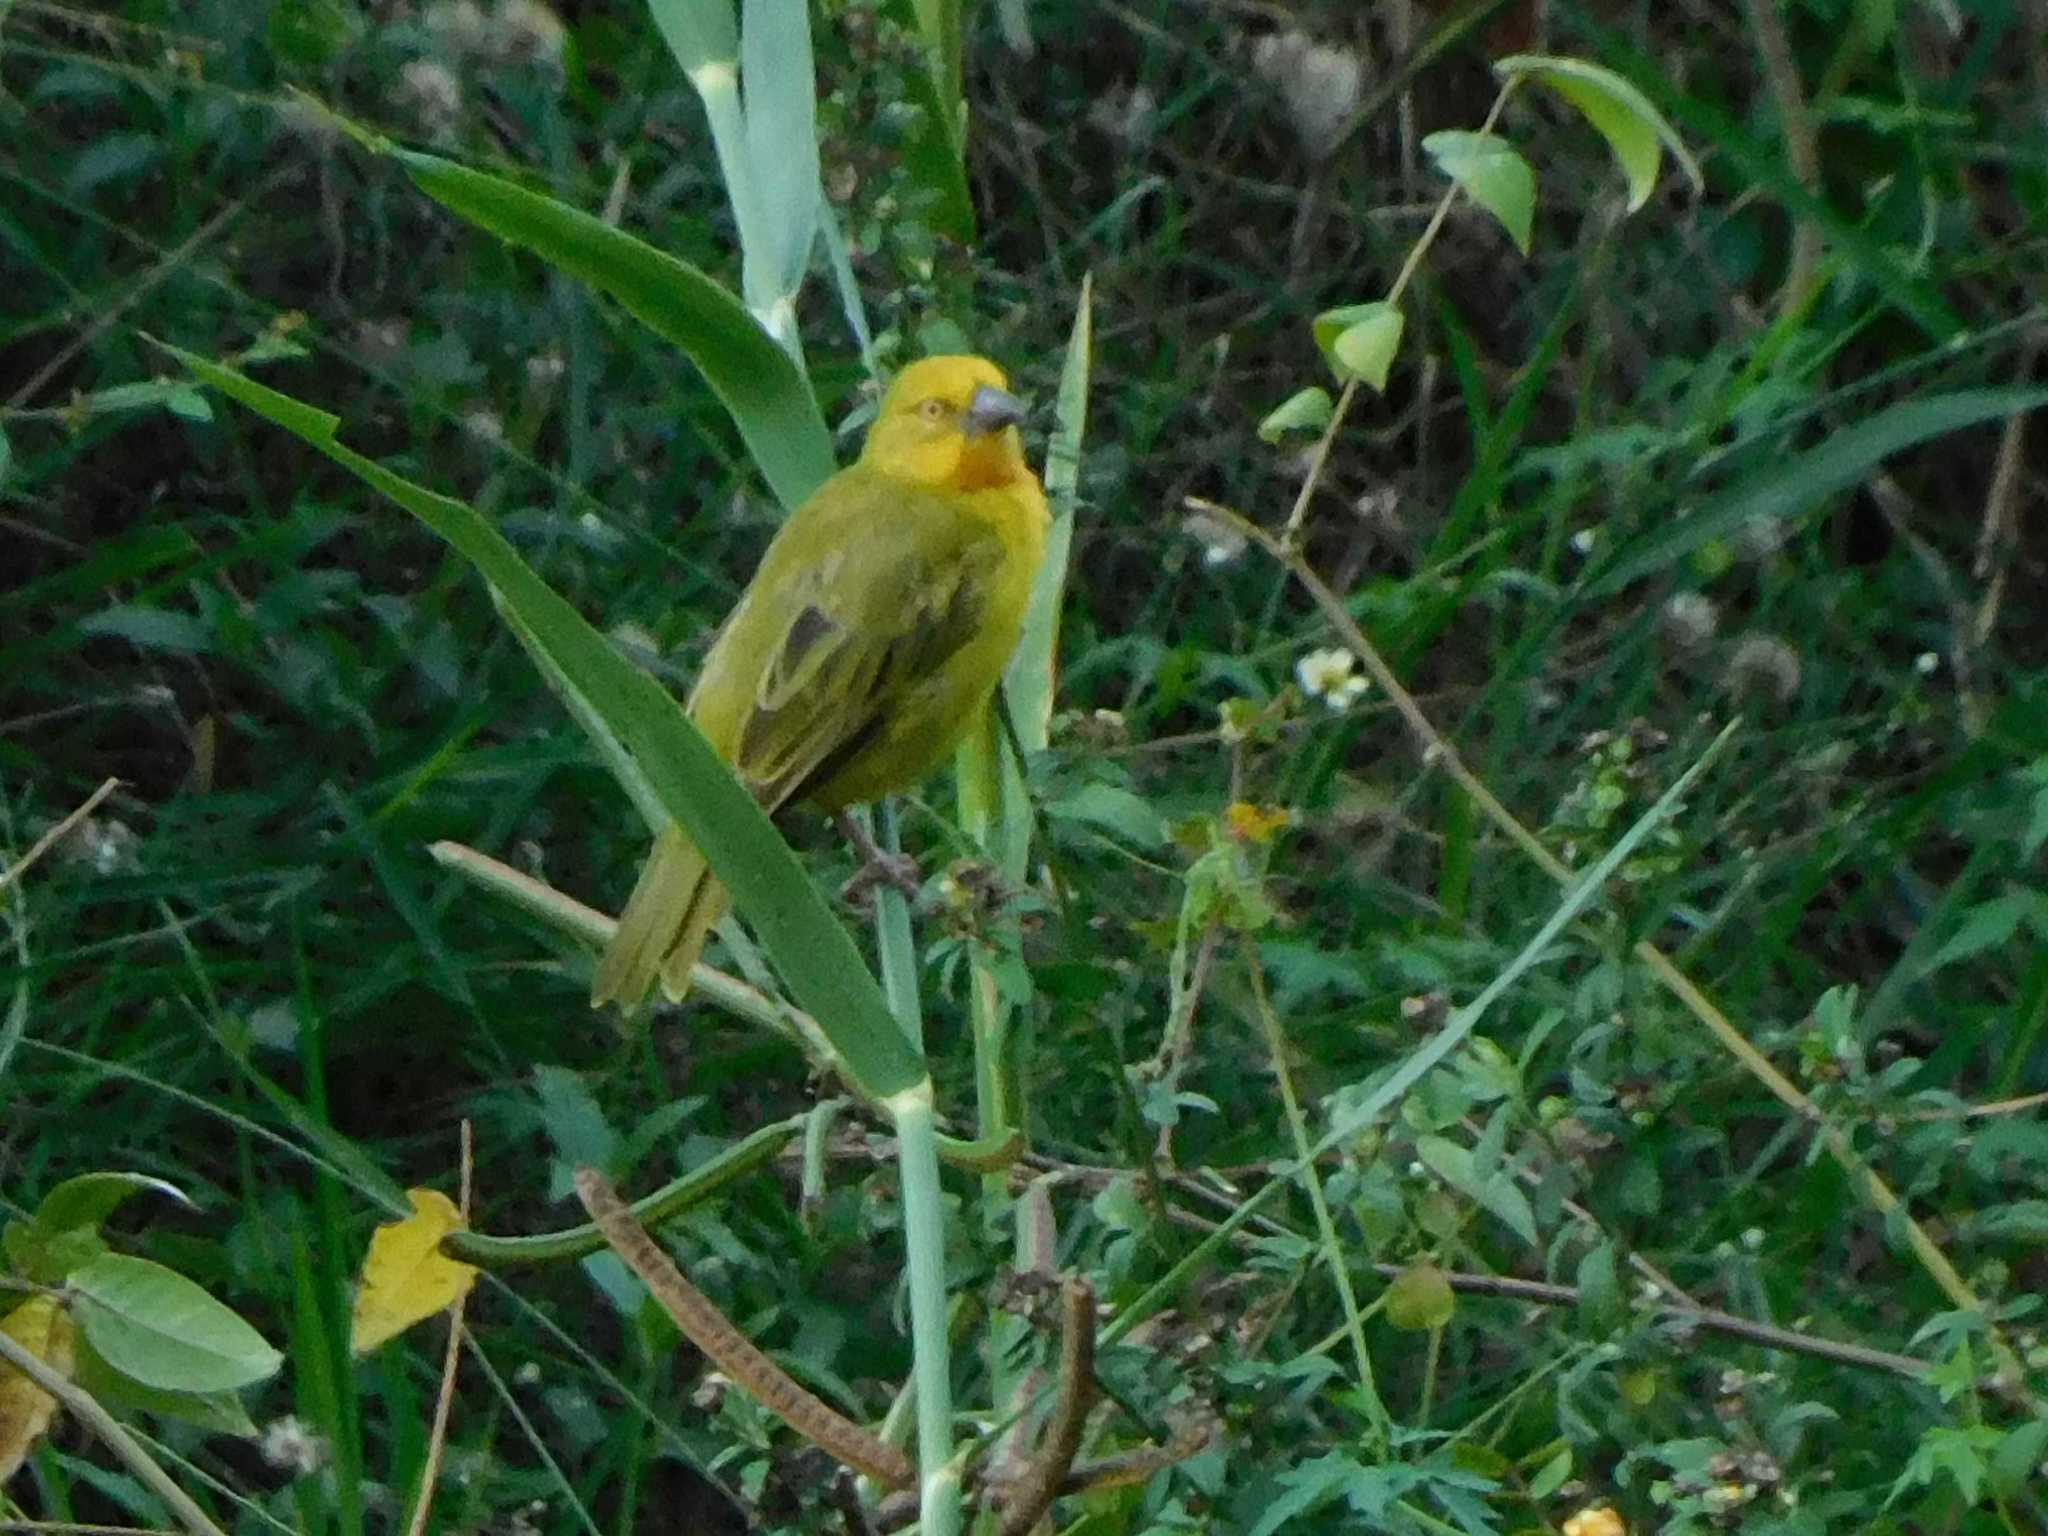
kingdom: Animalia
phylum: Chordata
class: Aves
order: Passeriformes
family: Ploceidae
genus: Ploceus
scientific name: Ploceus xanthops
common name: Holub's golden weaver
